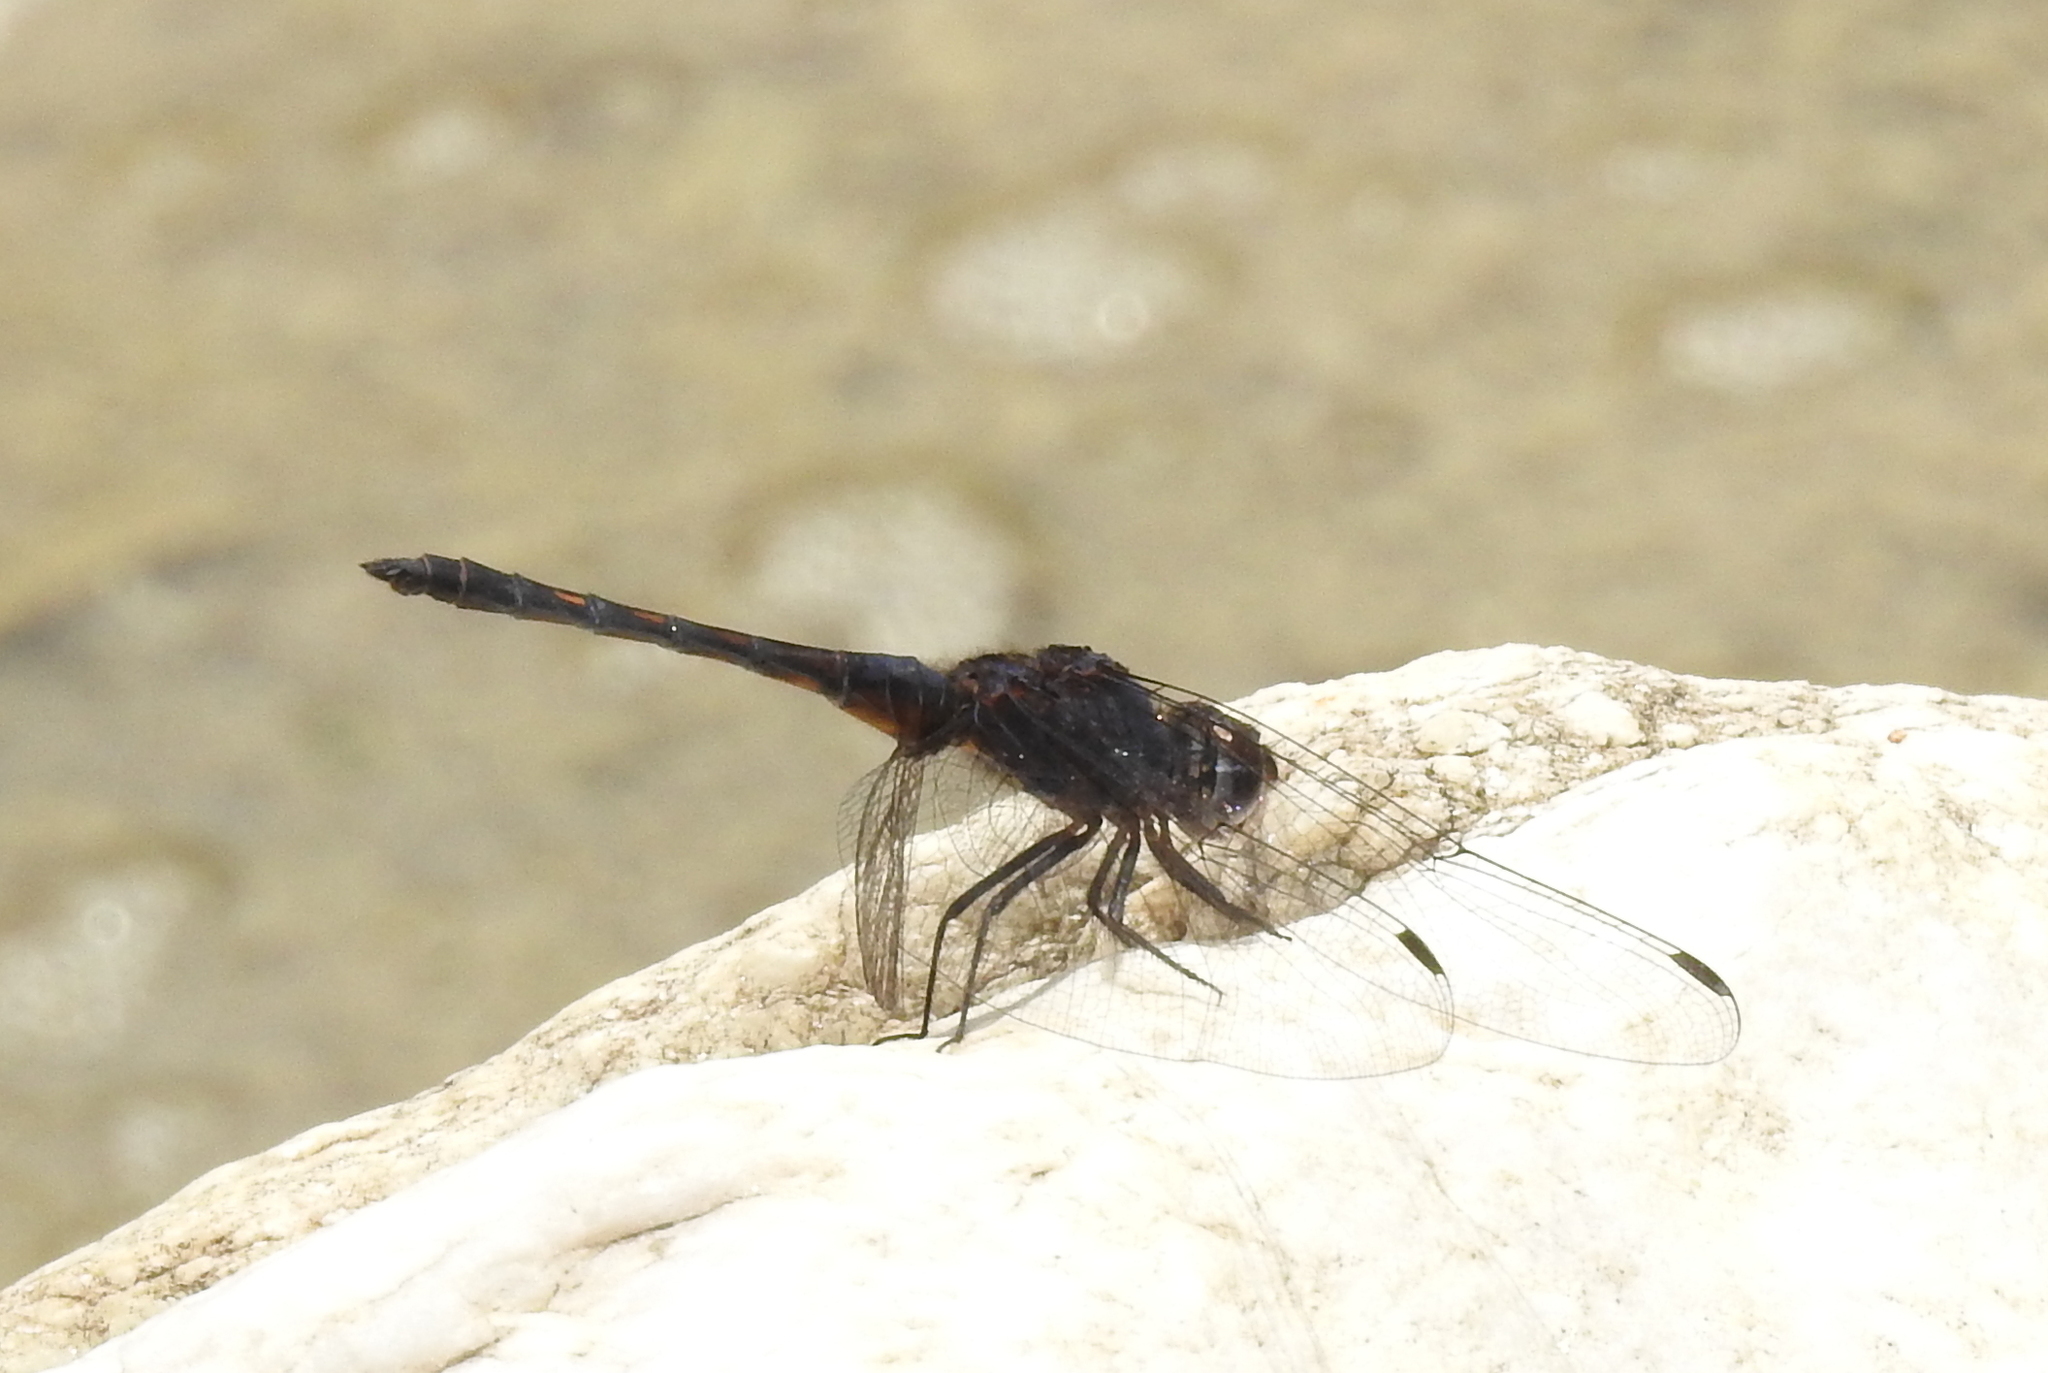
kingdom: Animalia
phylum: Arthropoda
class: Insecta
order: Odonata
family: Libellulidae
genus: Trithemis
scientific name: Trithemis festiva
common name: Indigo dropwing
